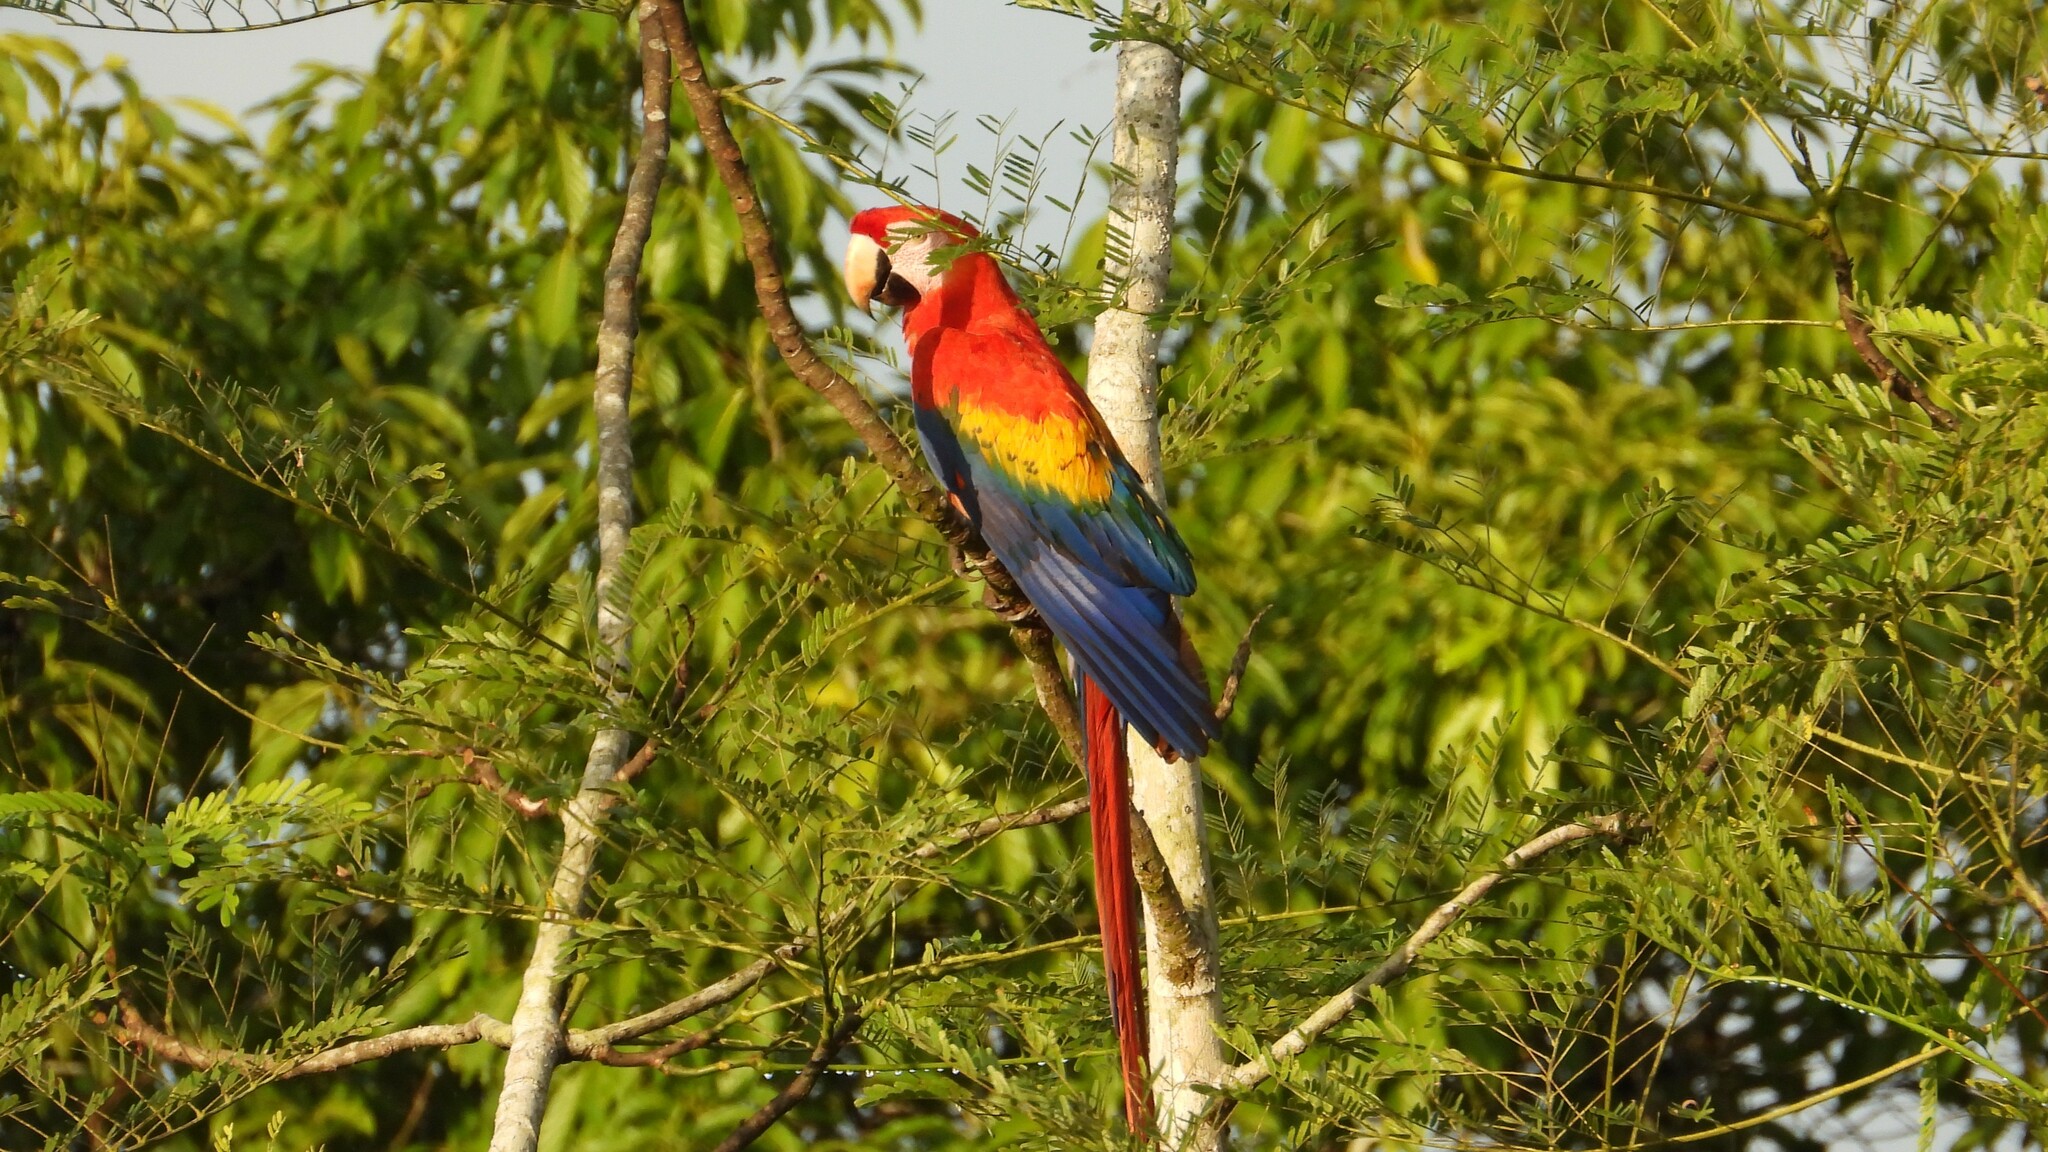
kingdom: Animalia
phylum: Chordata
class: Aves
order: Psittaciformes
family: Psittacidae
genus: Ara
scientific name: Ara macao
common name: Scarlet macaw
